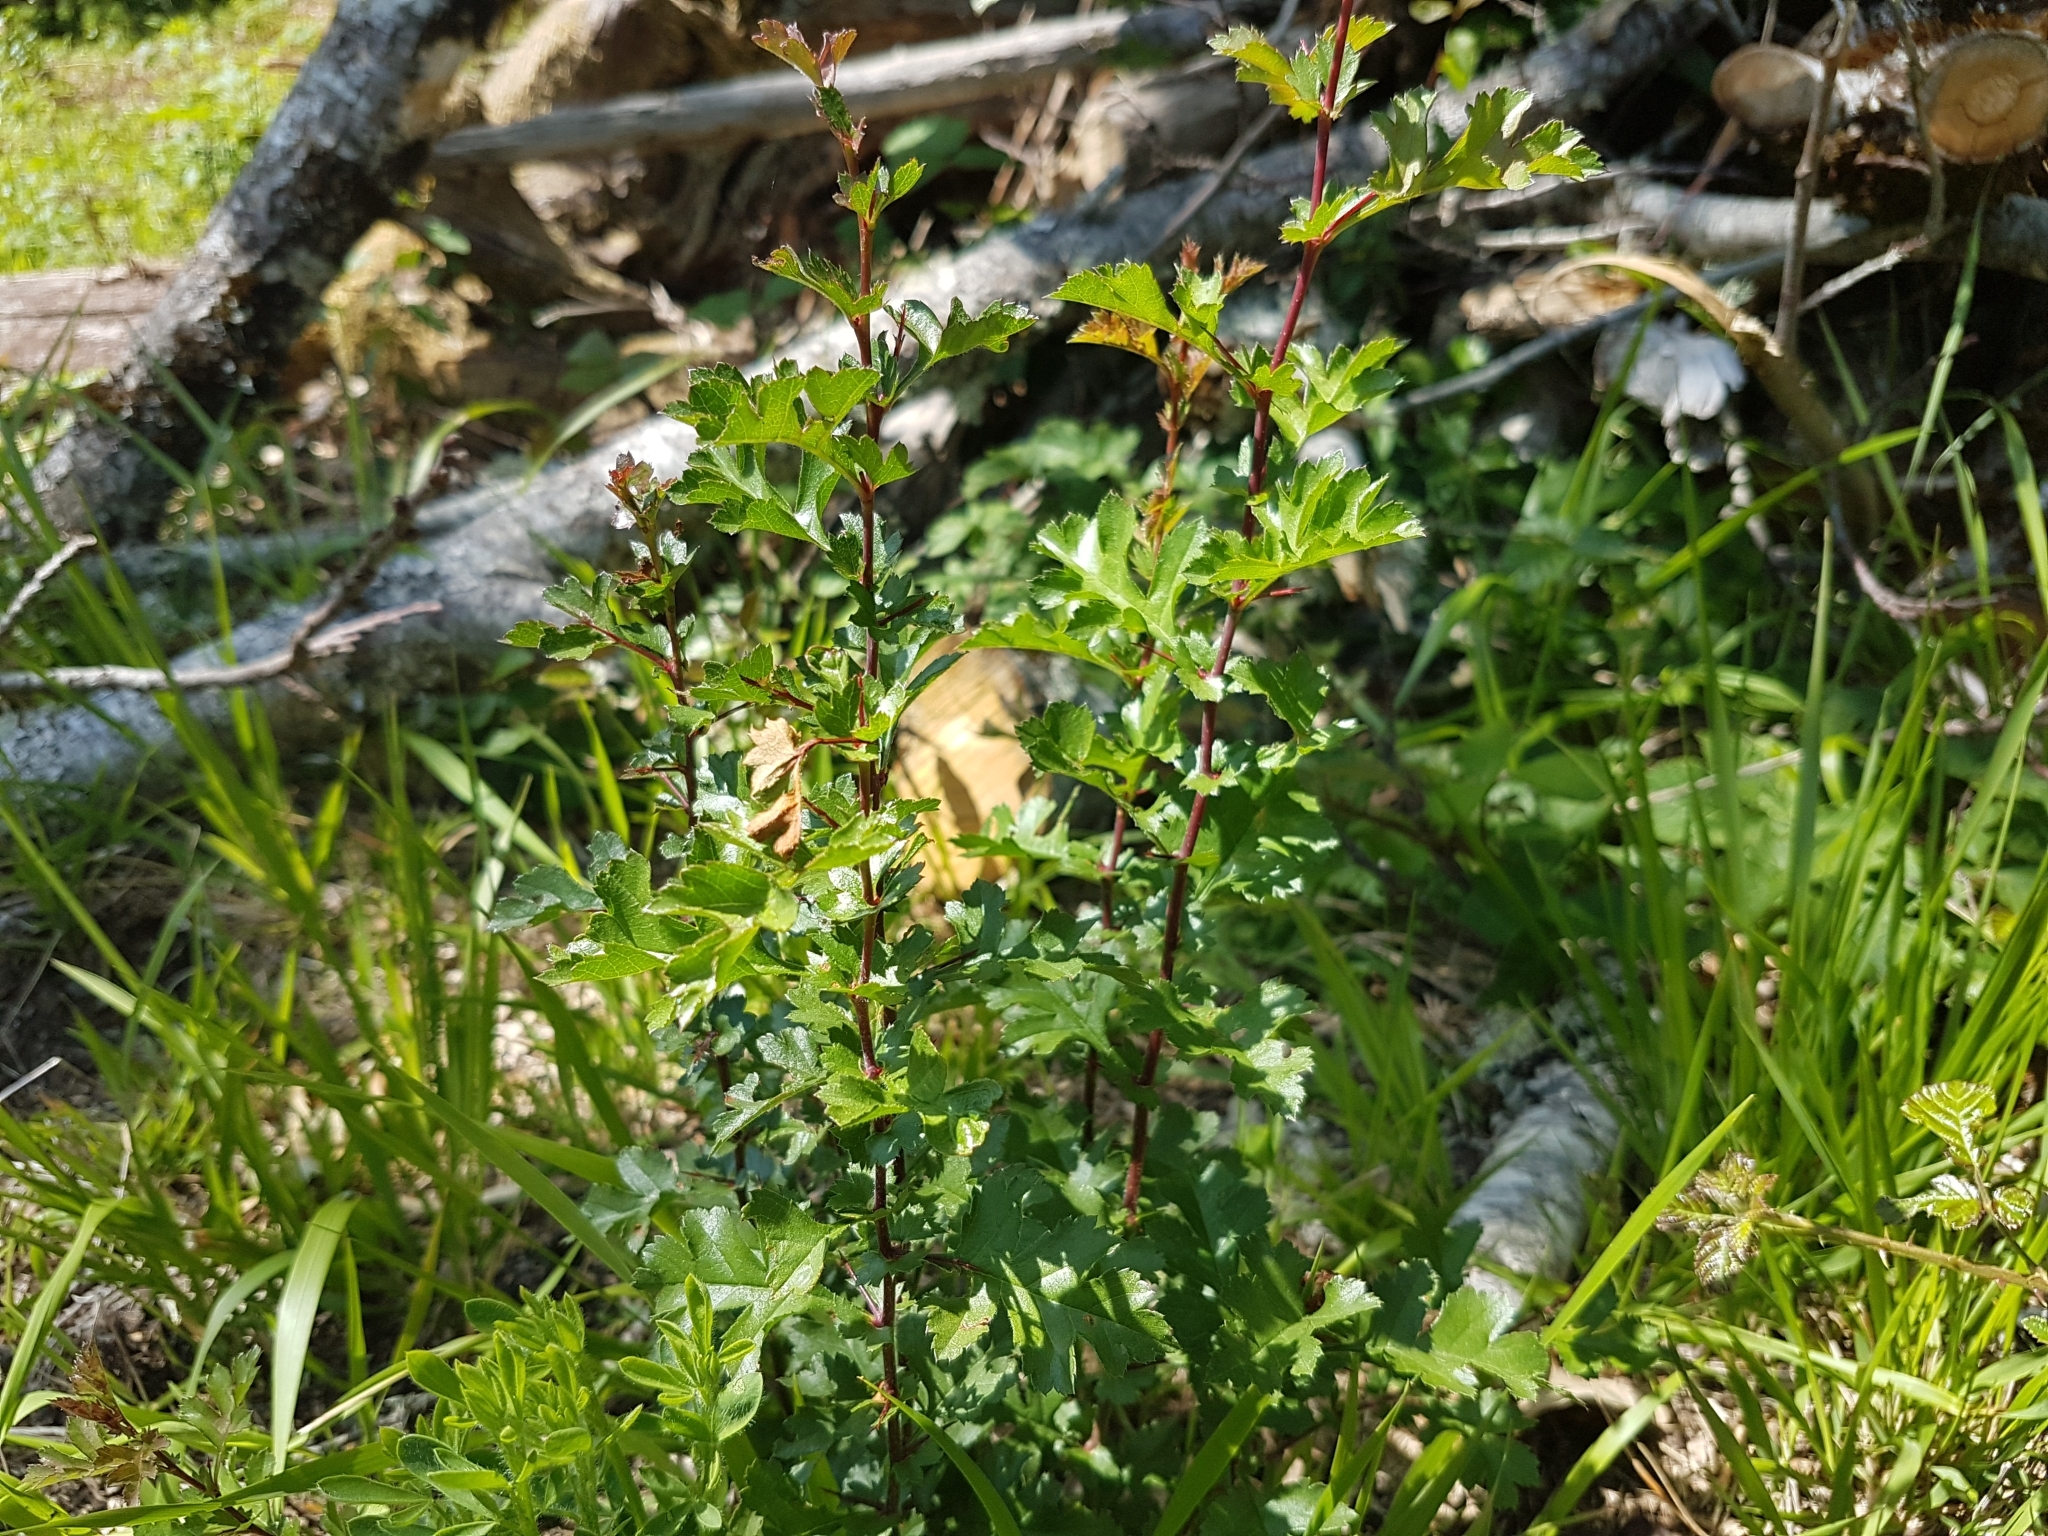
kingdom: Plantae
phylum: Tracheophyta
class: Magnoliopsida
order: Rosales
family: Rosaceae
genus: Crataegus
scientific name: Crataegus monogyna
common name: Hawthorn
